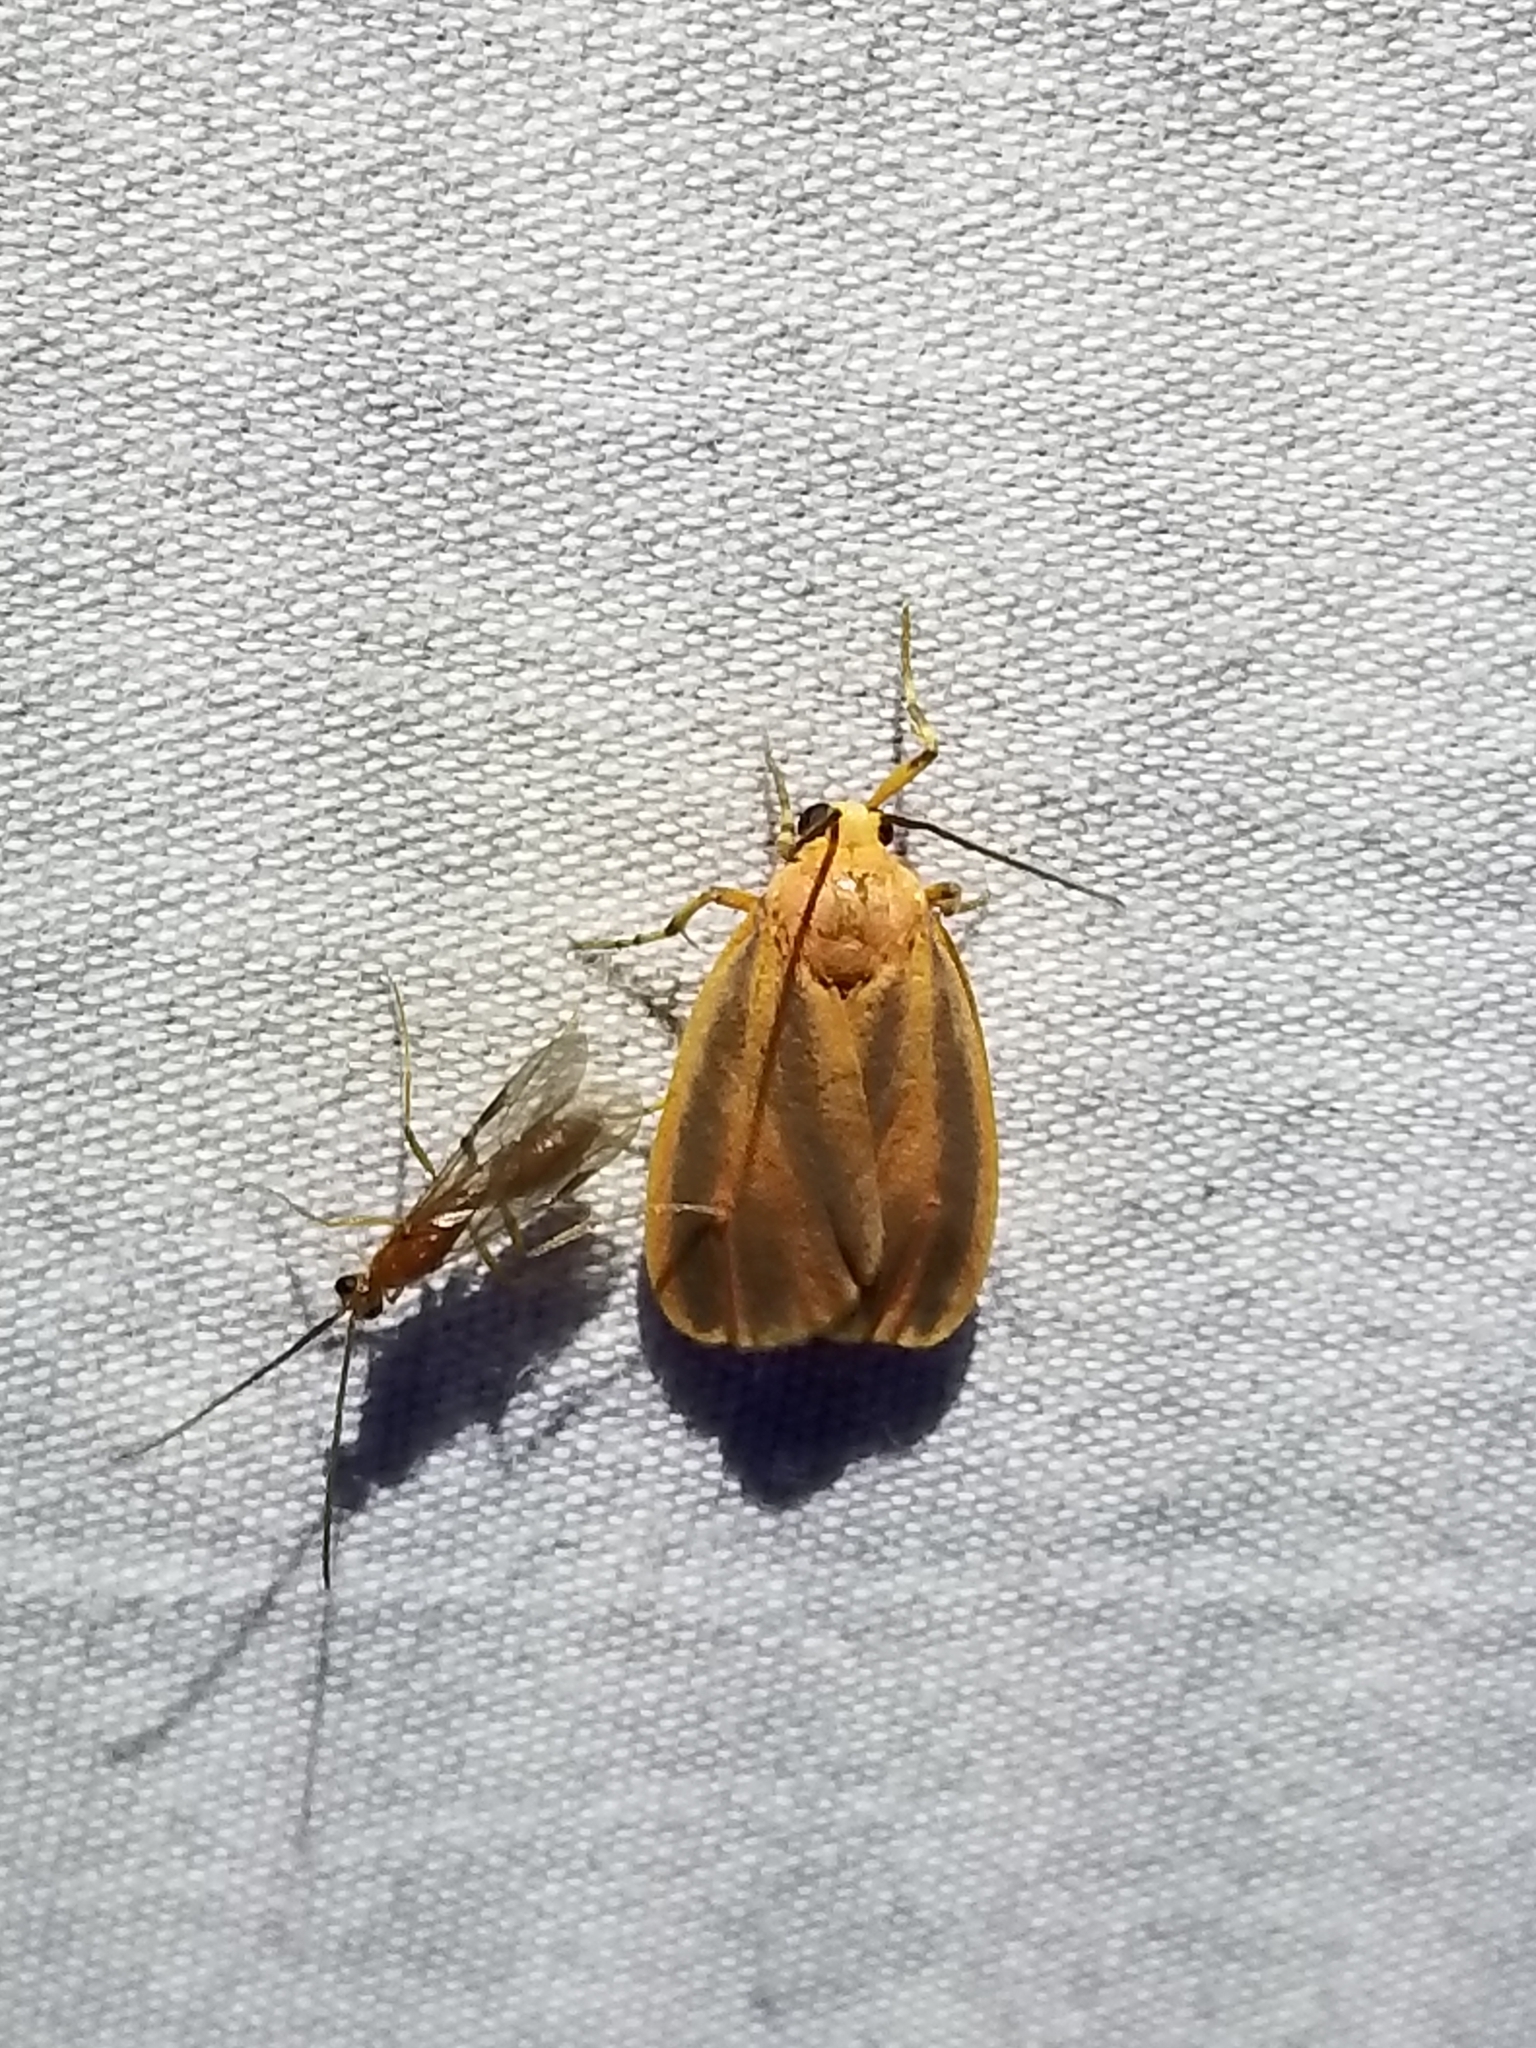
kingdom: Animalia
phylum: Arthropoda
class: Insecta
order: Lepidoptera
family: Erebidae
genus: Hypoprepia
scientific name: Hypoprepia fucosa
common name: Painted lichen moth
